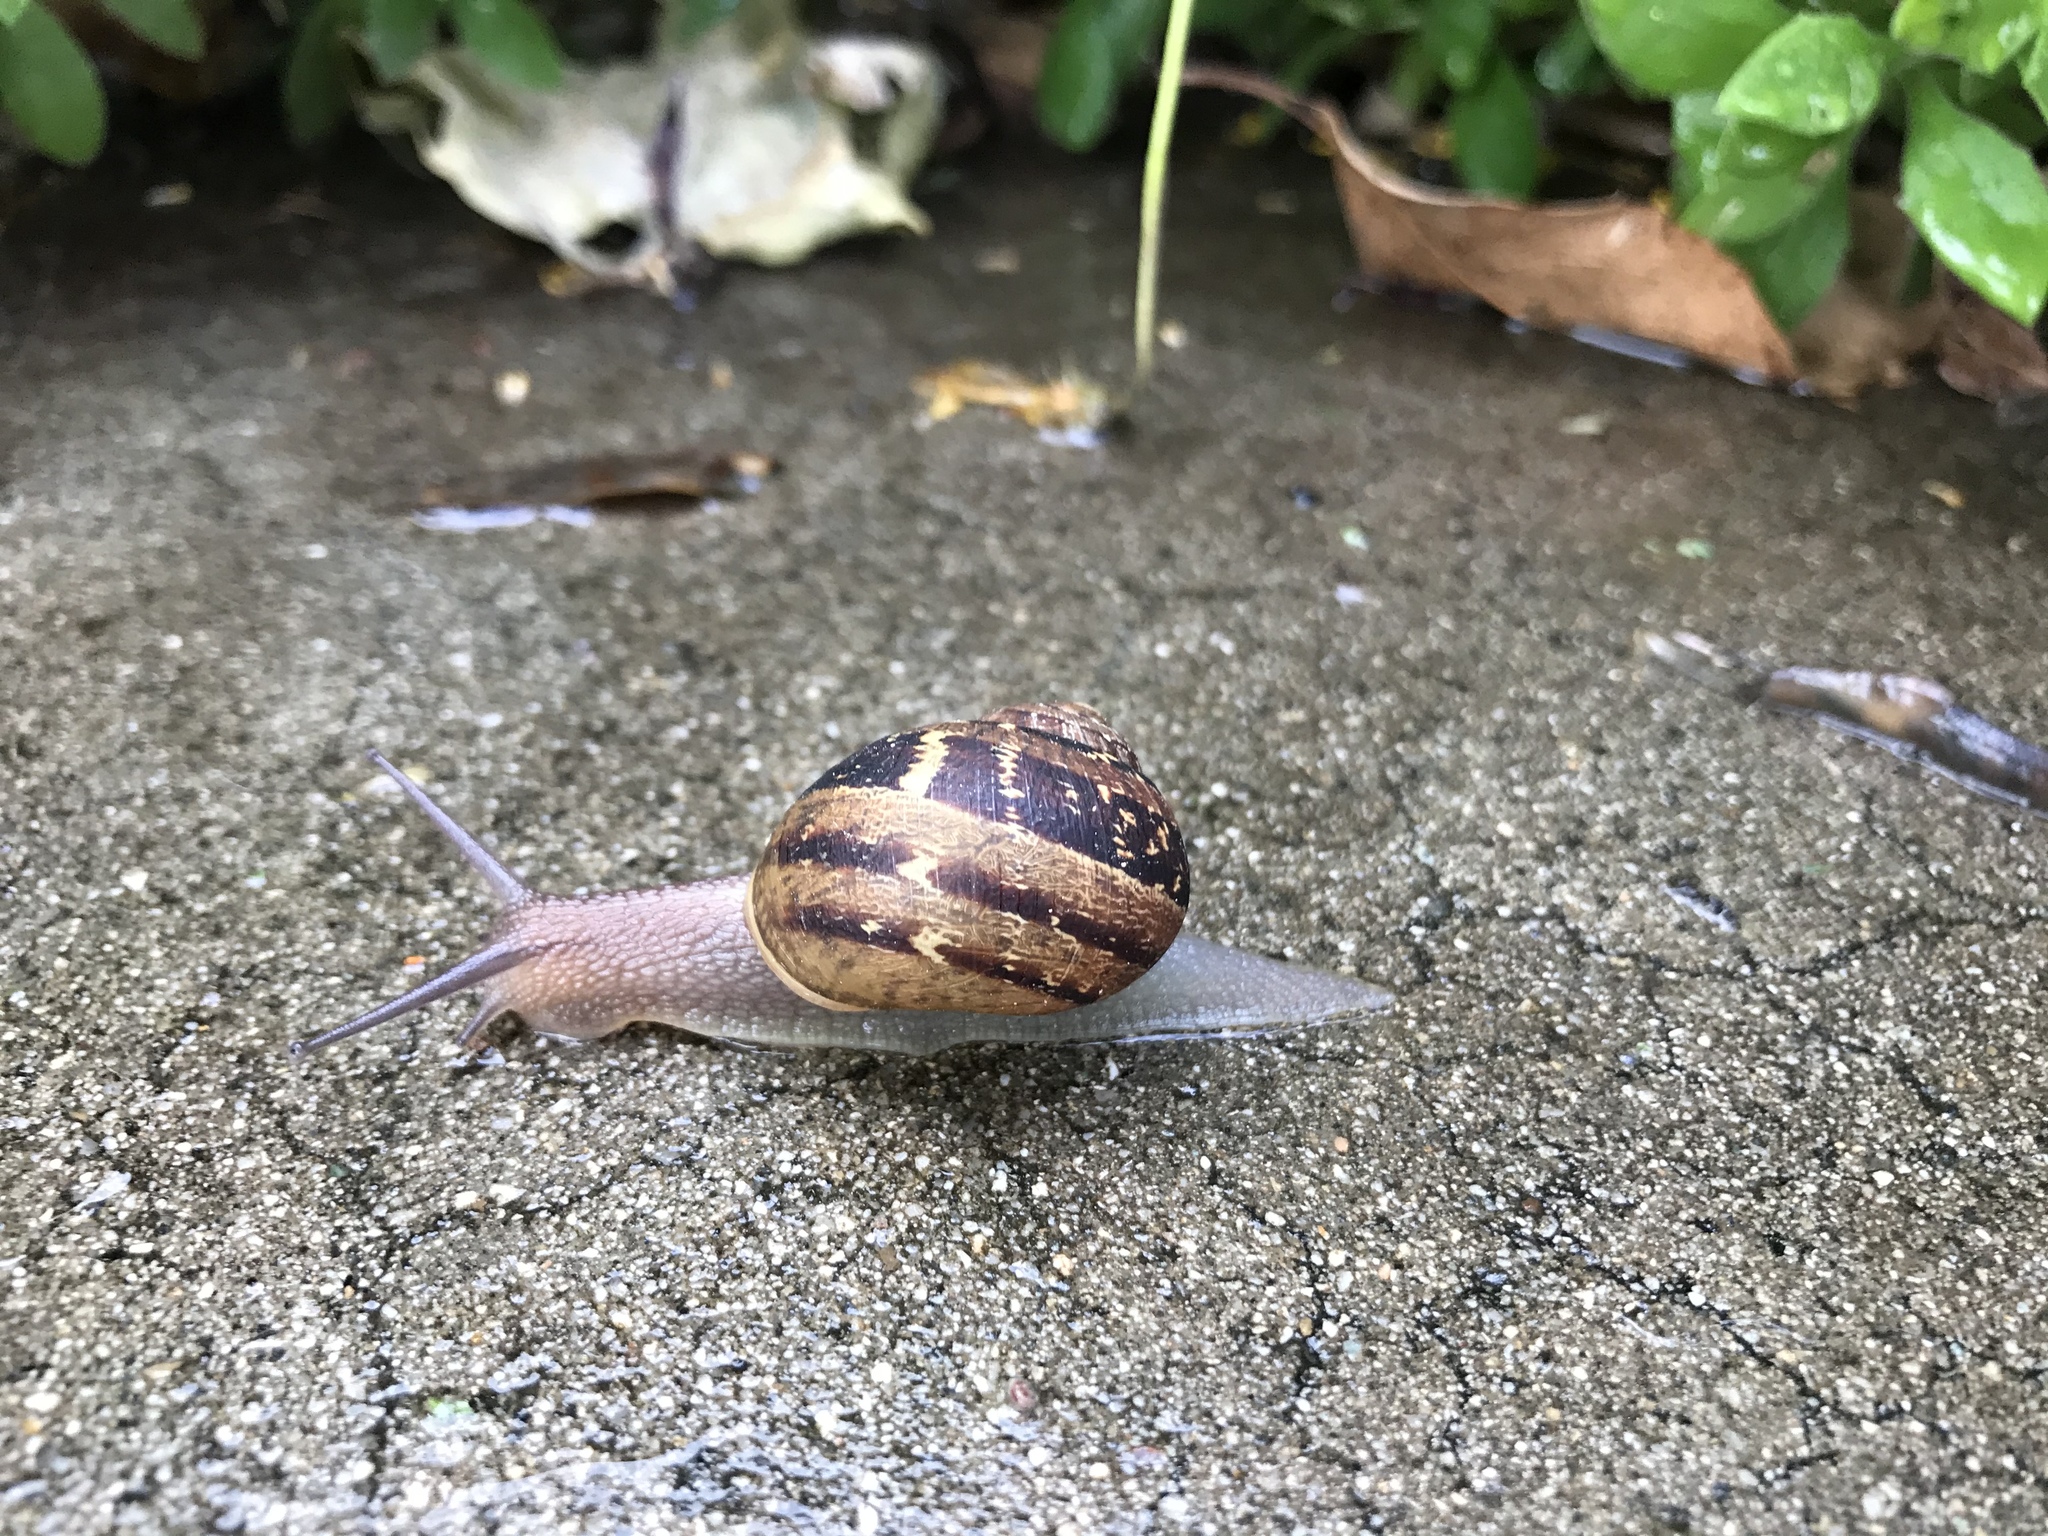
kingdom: Animalia
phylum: Mollusca
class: Gastropoda
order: Stylommatophora
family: Helicidae
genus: Cornu
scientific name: Cornu aspersum
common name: Brown garden snail
